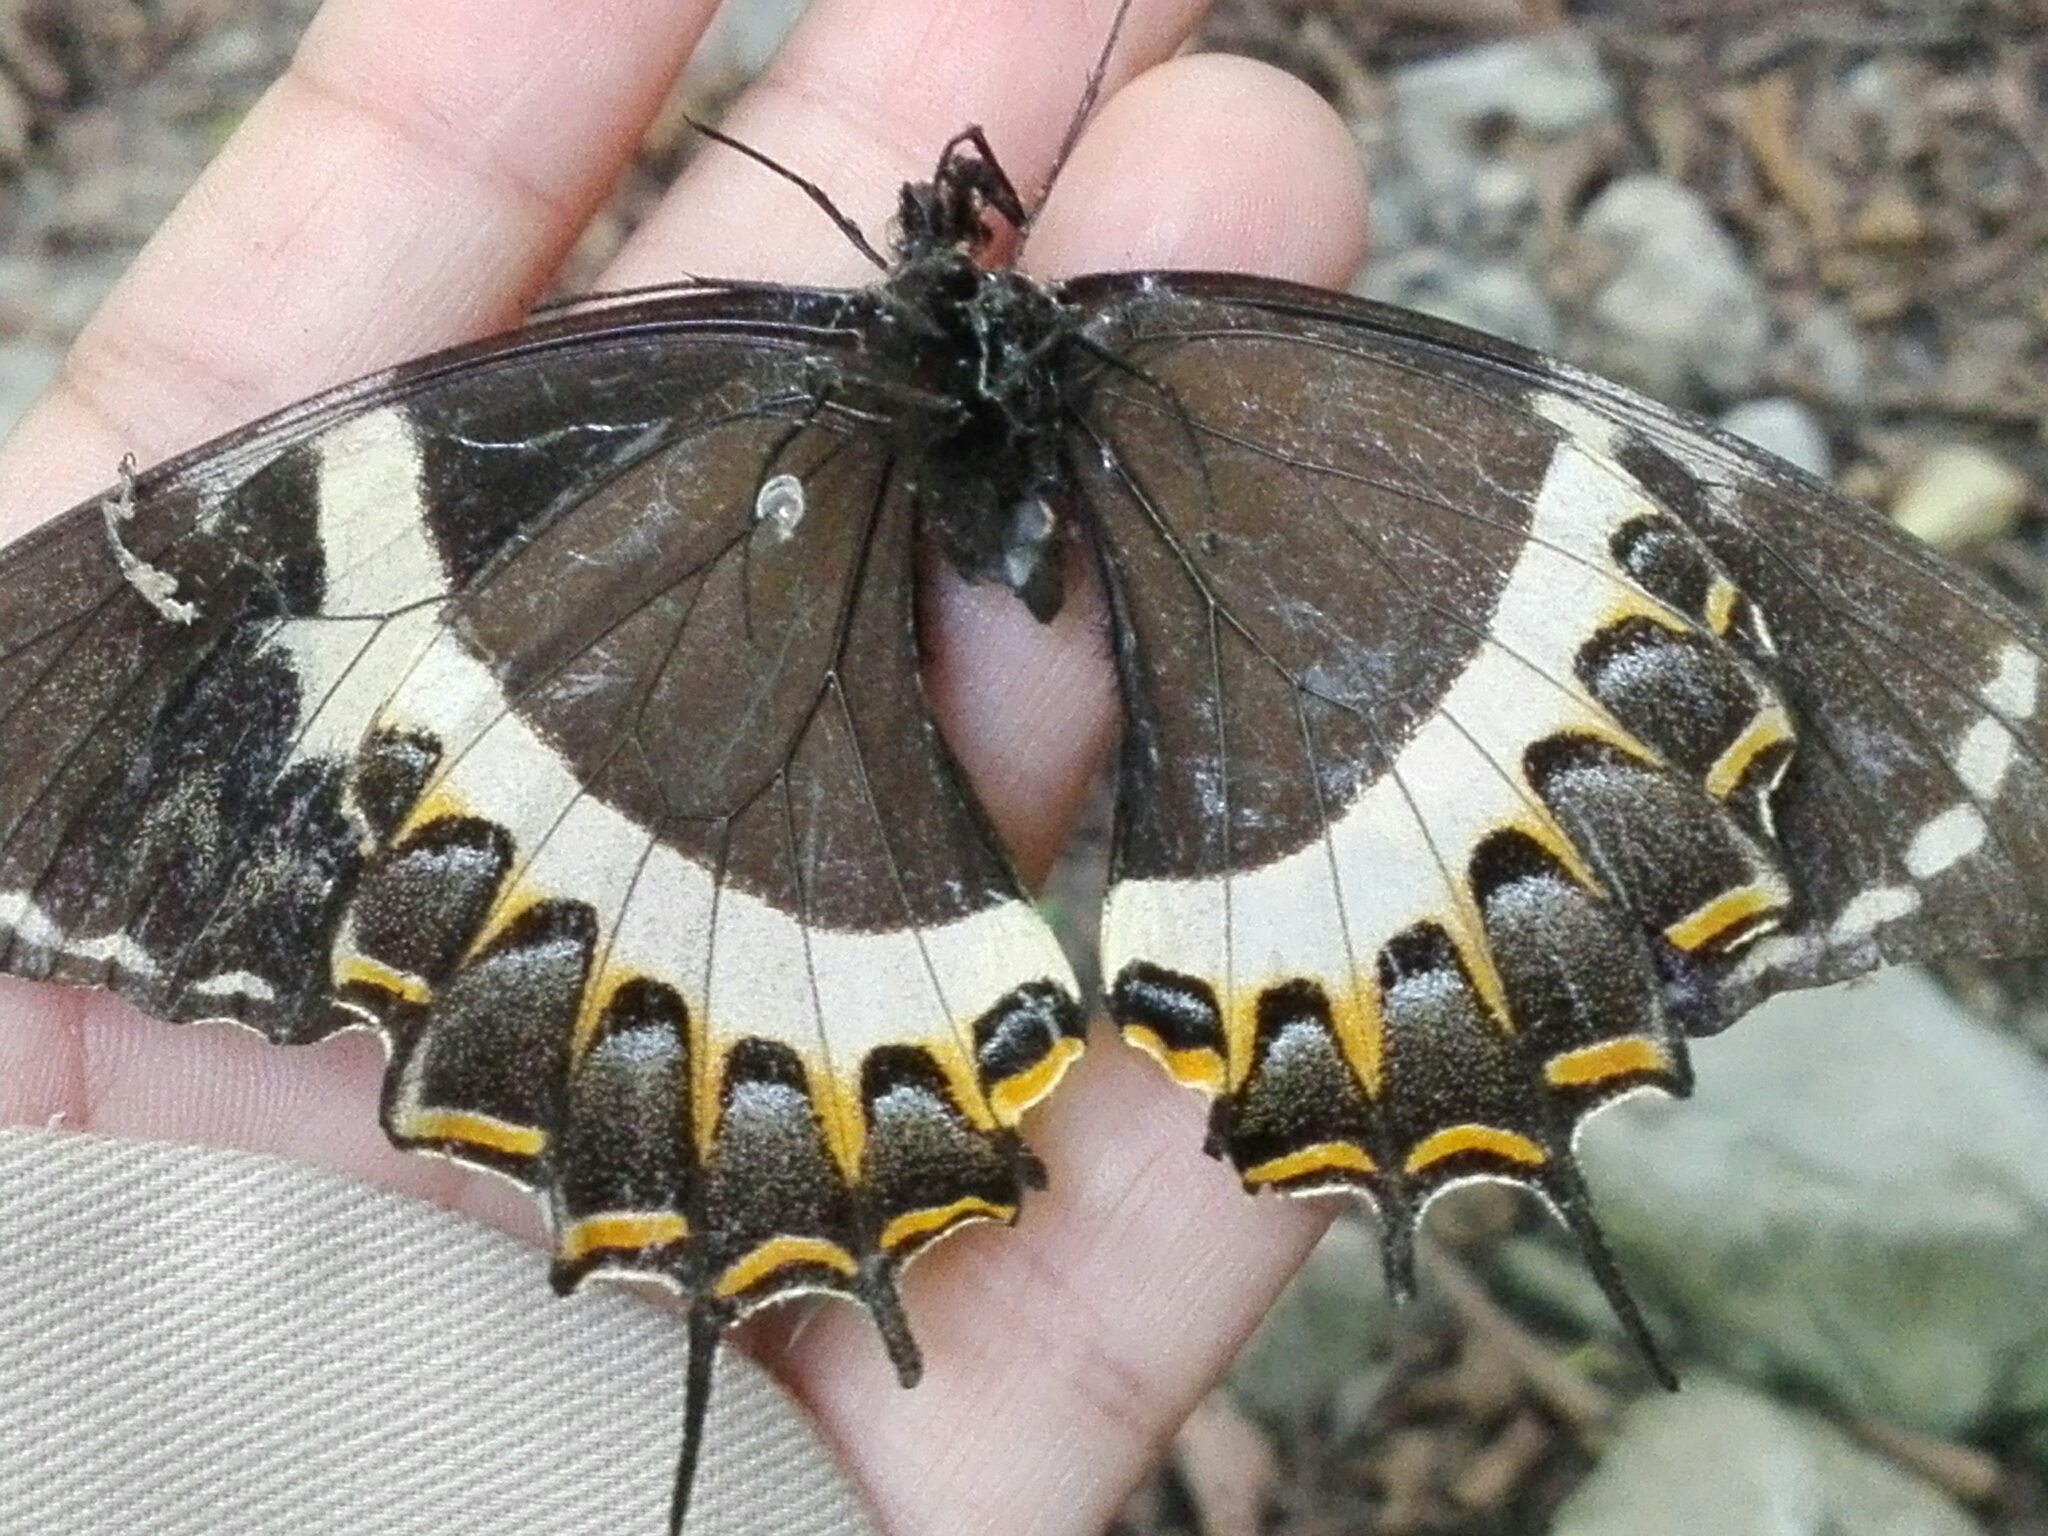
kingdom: Animalia
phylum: Arthropoda
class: Insecta
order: Lepidoptera
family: Papilionidae
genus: Papilio
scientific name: Papilio garamas
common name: Magnificent swallowtail
